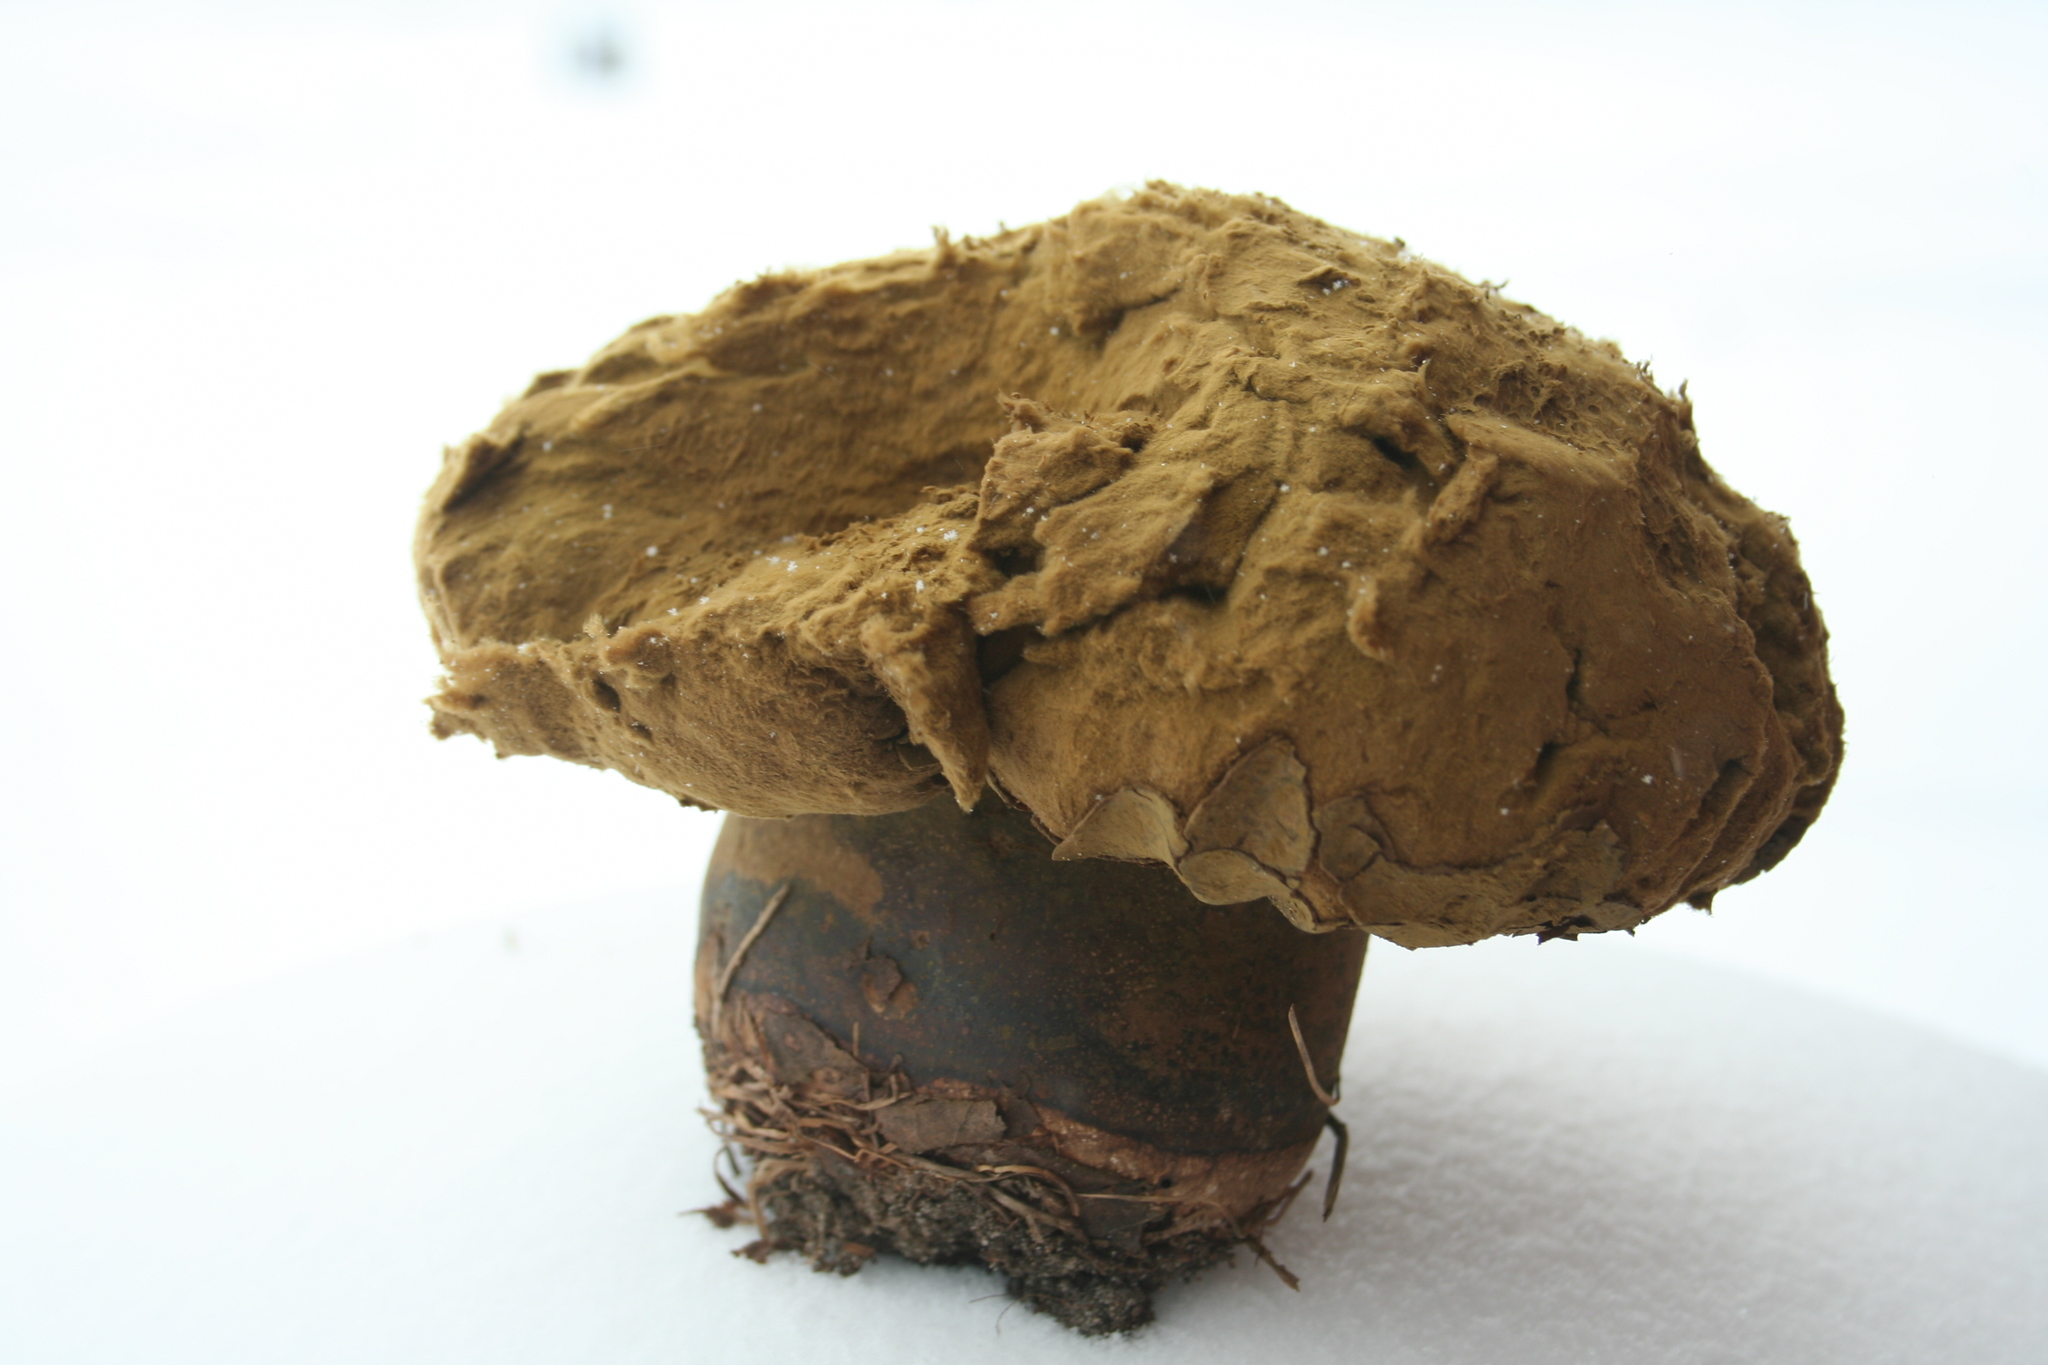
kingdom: Fungi
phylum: Basidiomycota
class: Agaricomycetes
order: Agaricales
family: Lycoperdaceae
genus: Calvatia
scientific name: Calvatia cyathiformis
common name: Purple-spored puffball
